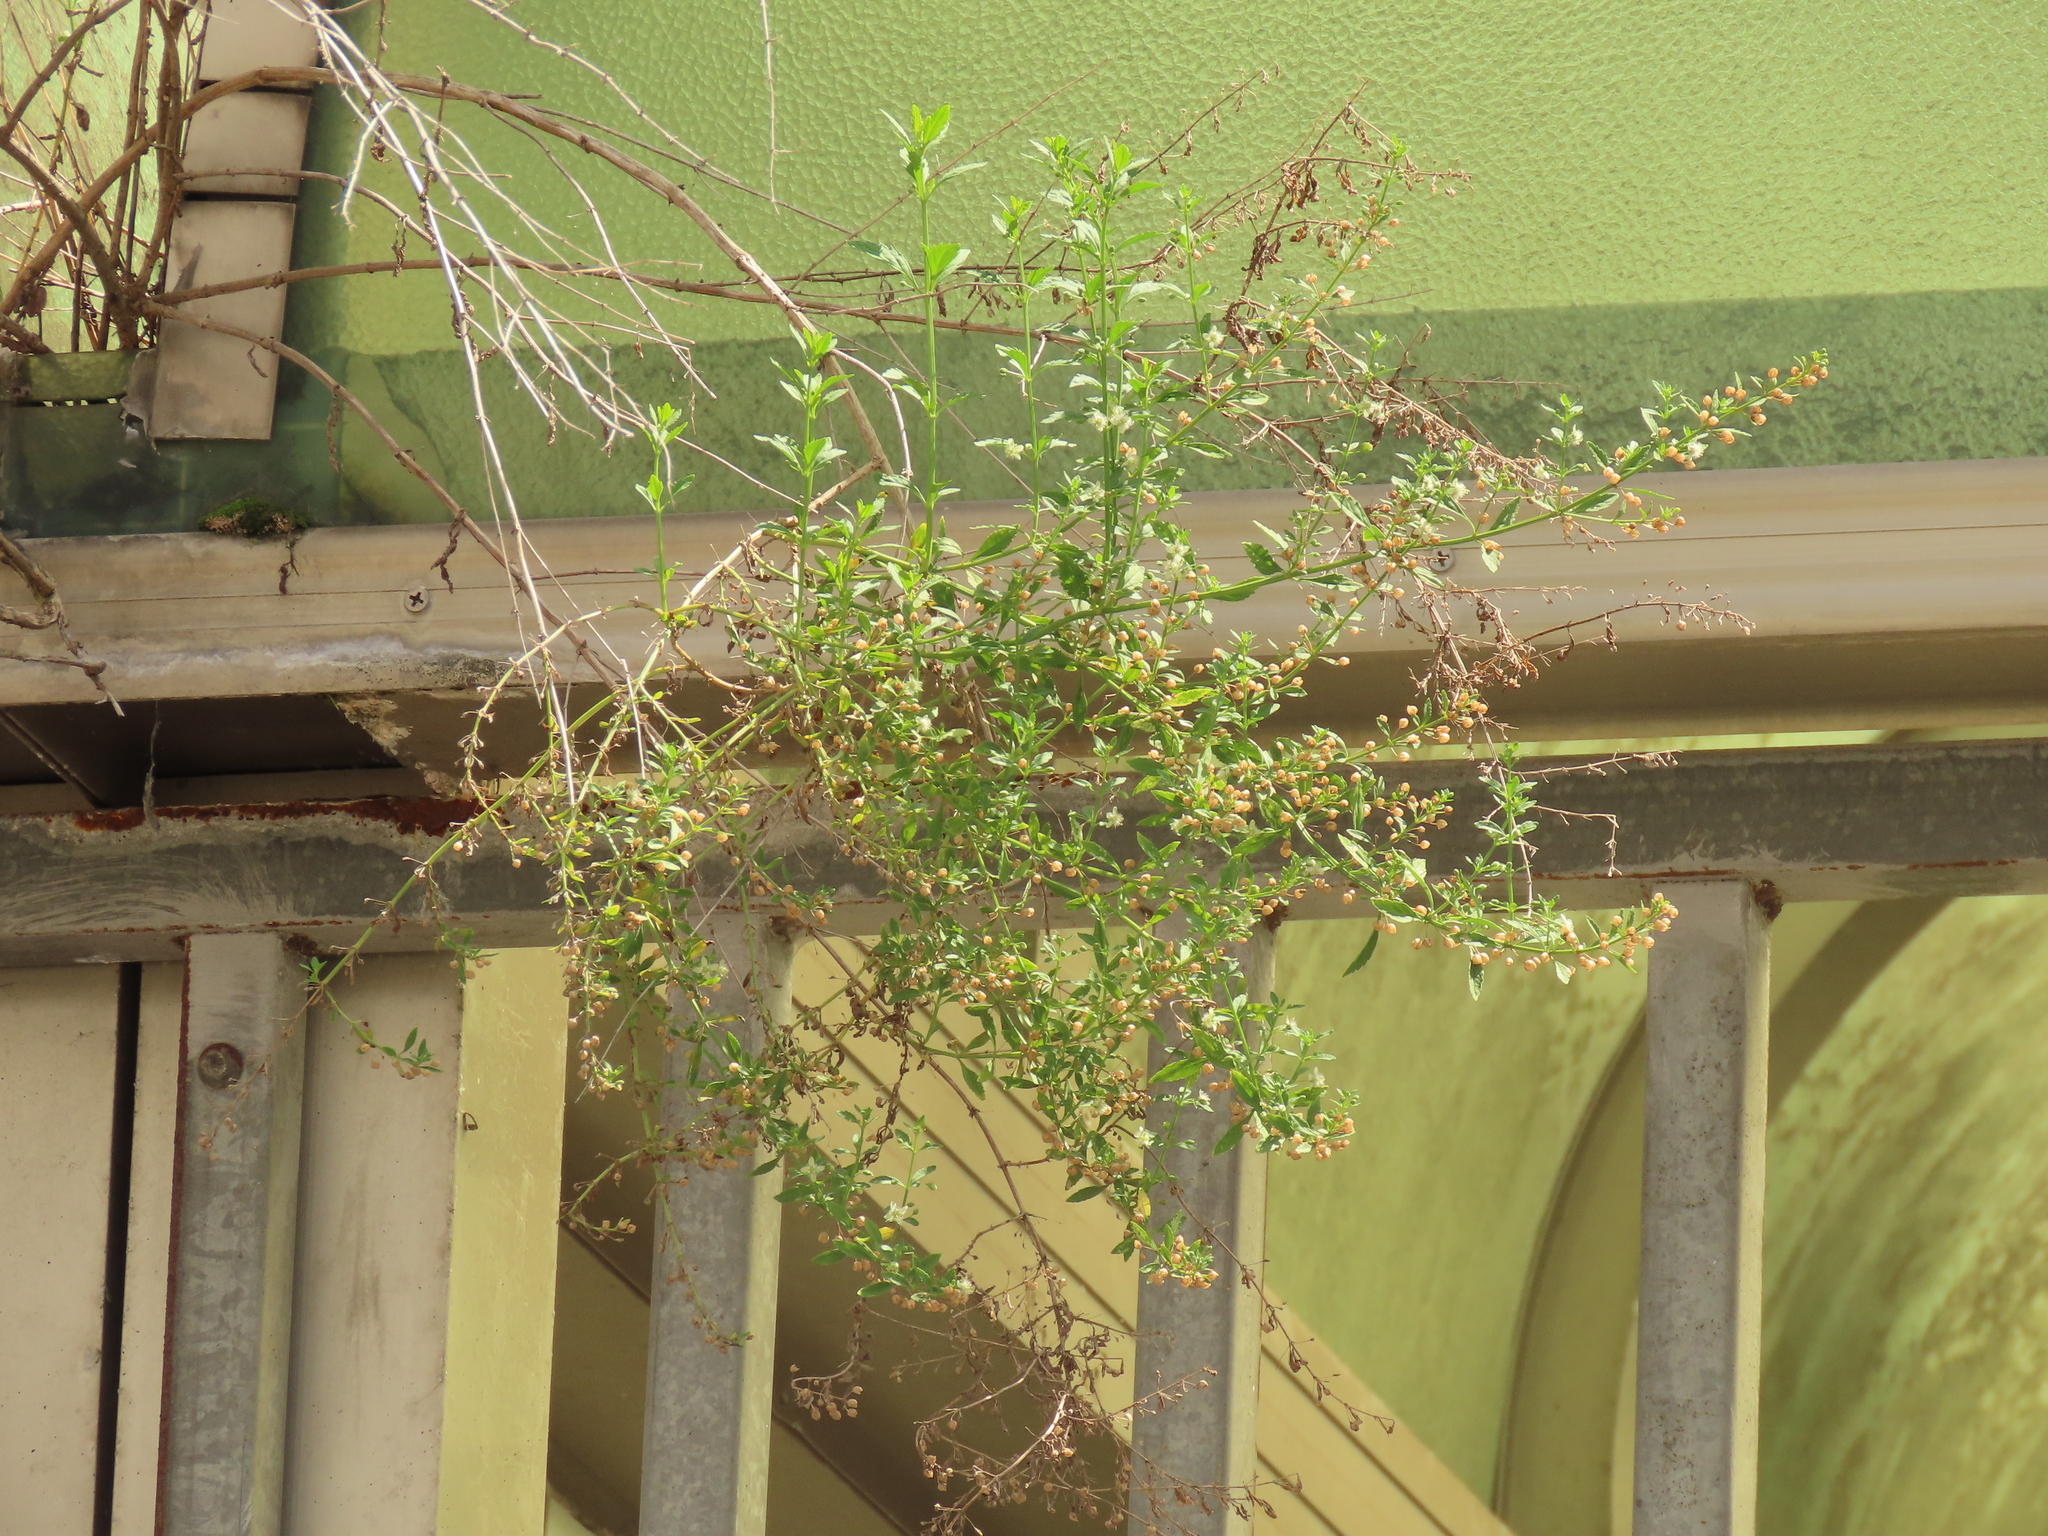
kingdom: Plantae
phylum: Tracheophyta
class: Magnoliopsida
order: Lamiales
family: Plantaginaceae
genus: Scoparia
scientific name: Scoparia dulcis
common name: Scoparia-weed
